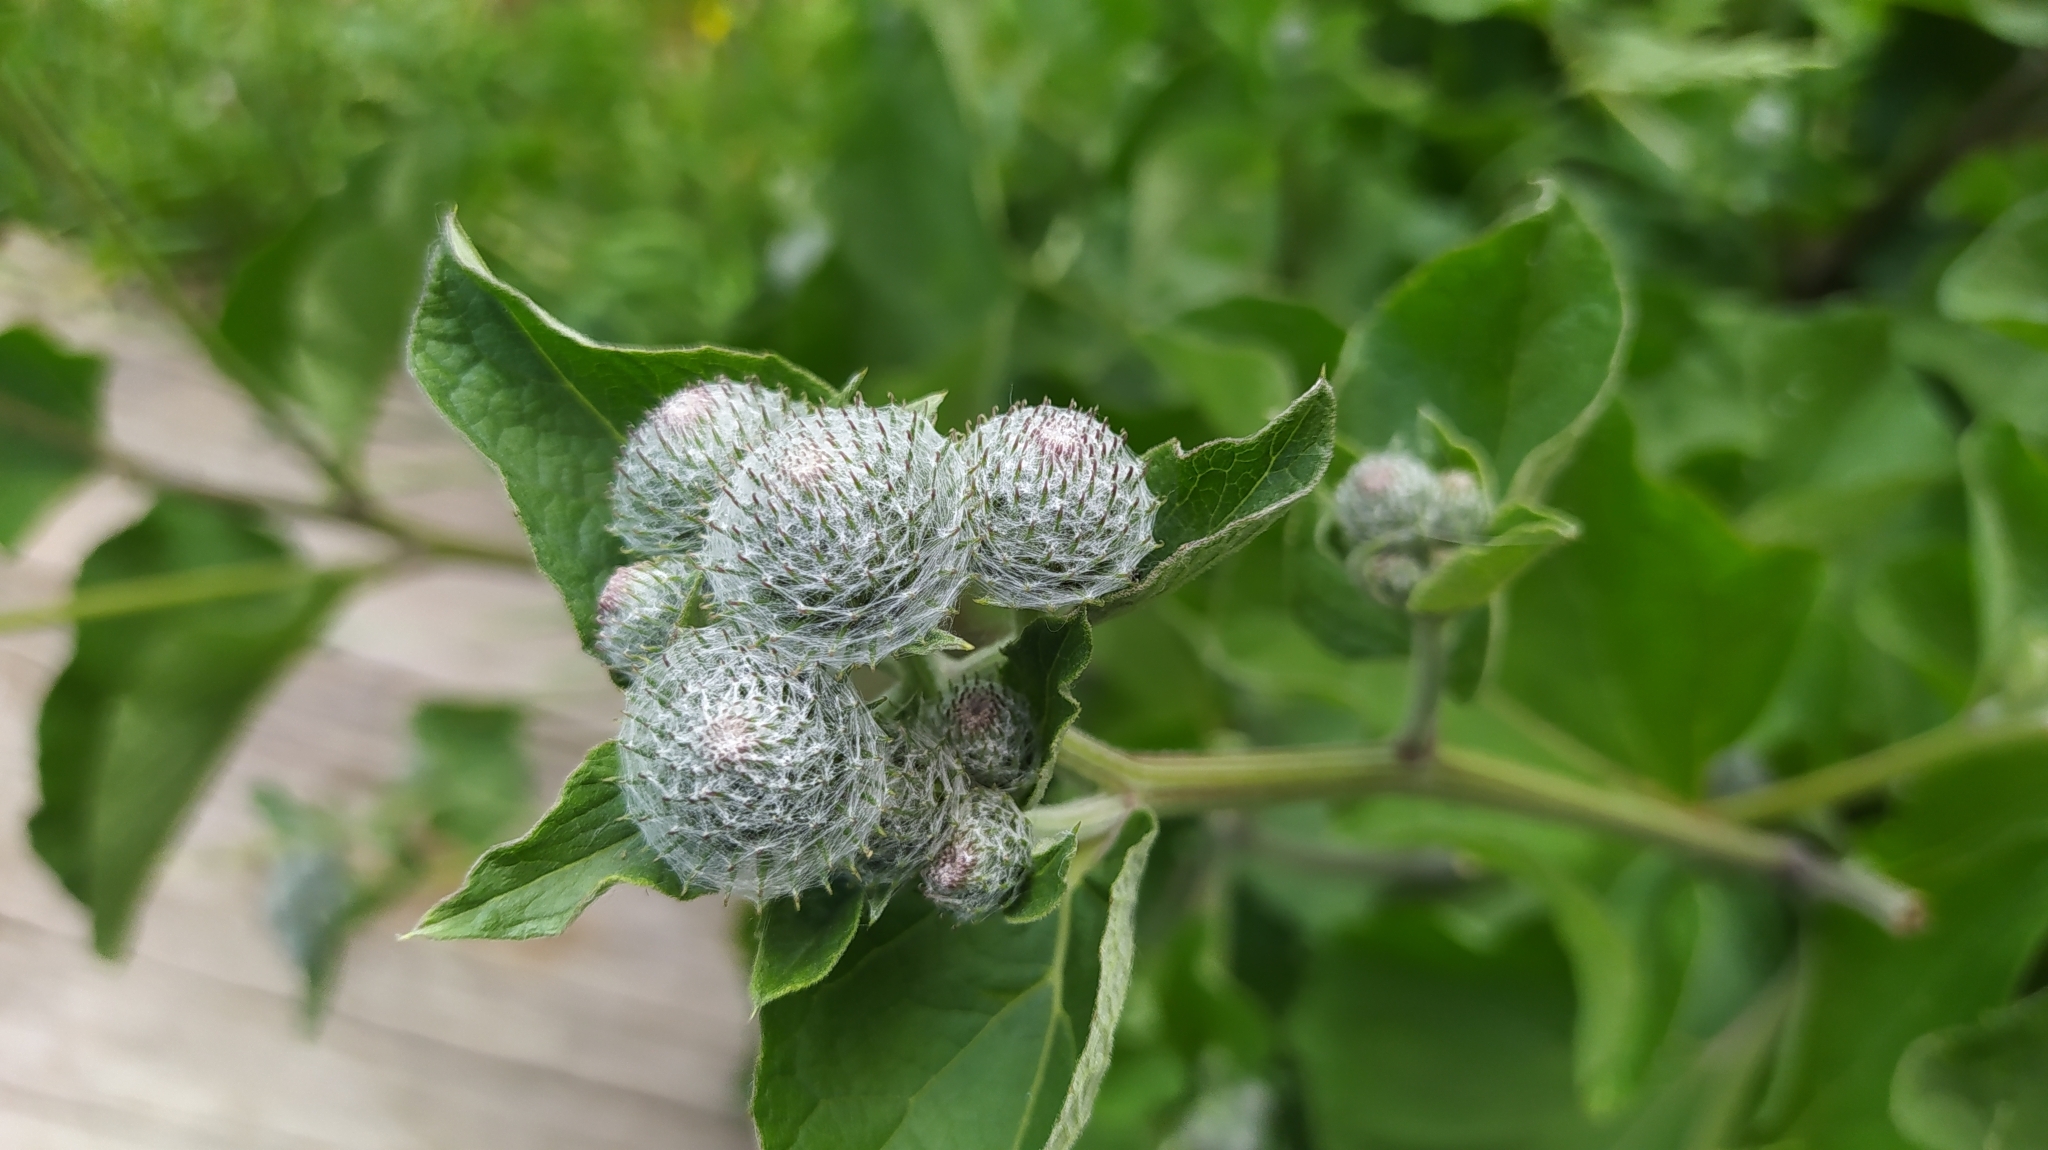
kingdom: Plantae
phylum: Tracheophyta
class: Magnoliopsida
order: Asterales
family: Asteraceae
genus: Arctium
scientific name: Arctium tomentosum
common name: Woolly burdock
